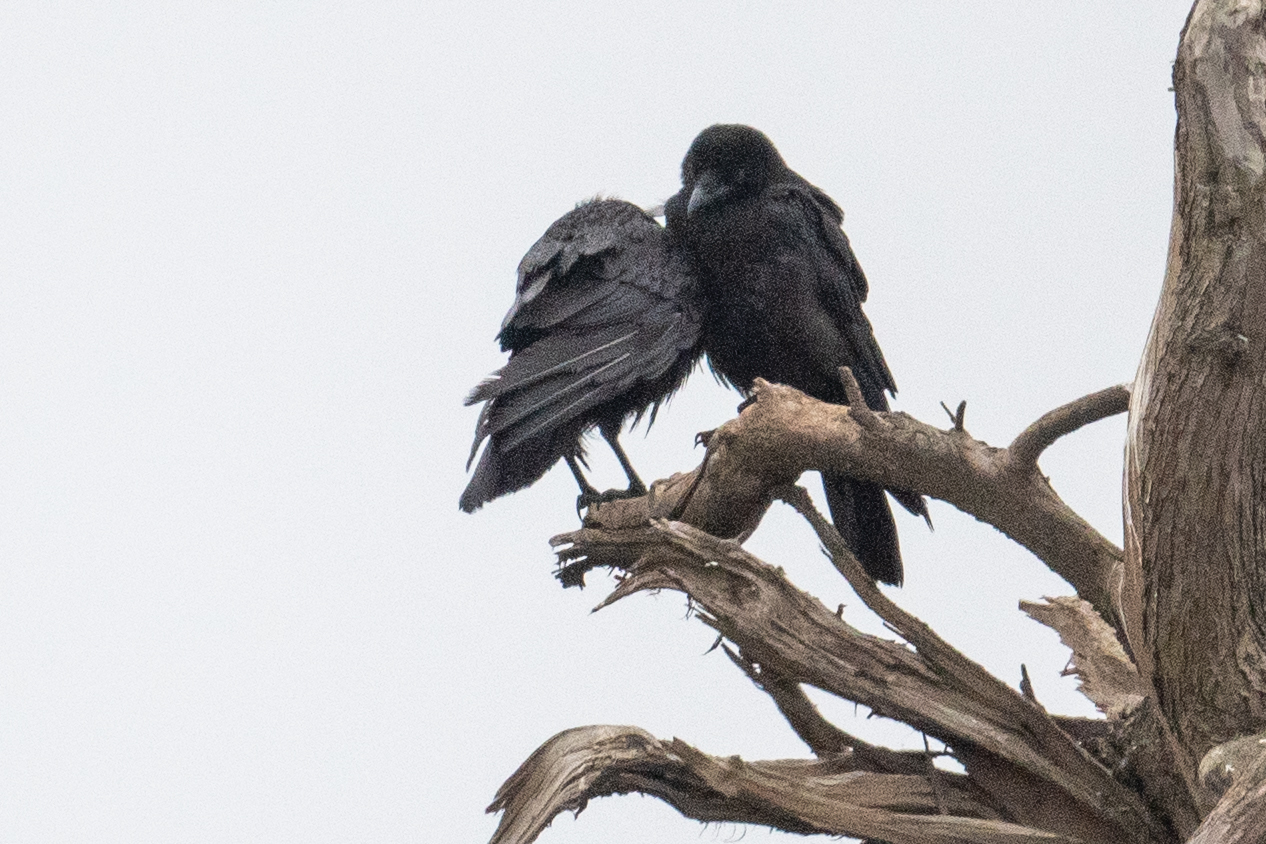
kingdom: Animalia
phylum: Chordata
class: Aves
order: Passeriformes
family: Corvidae
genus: Corvus
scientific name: Corvus corax
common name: Common raven
